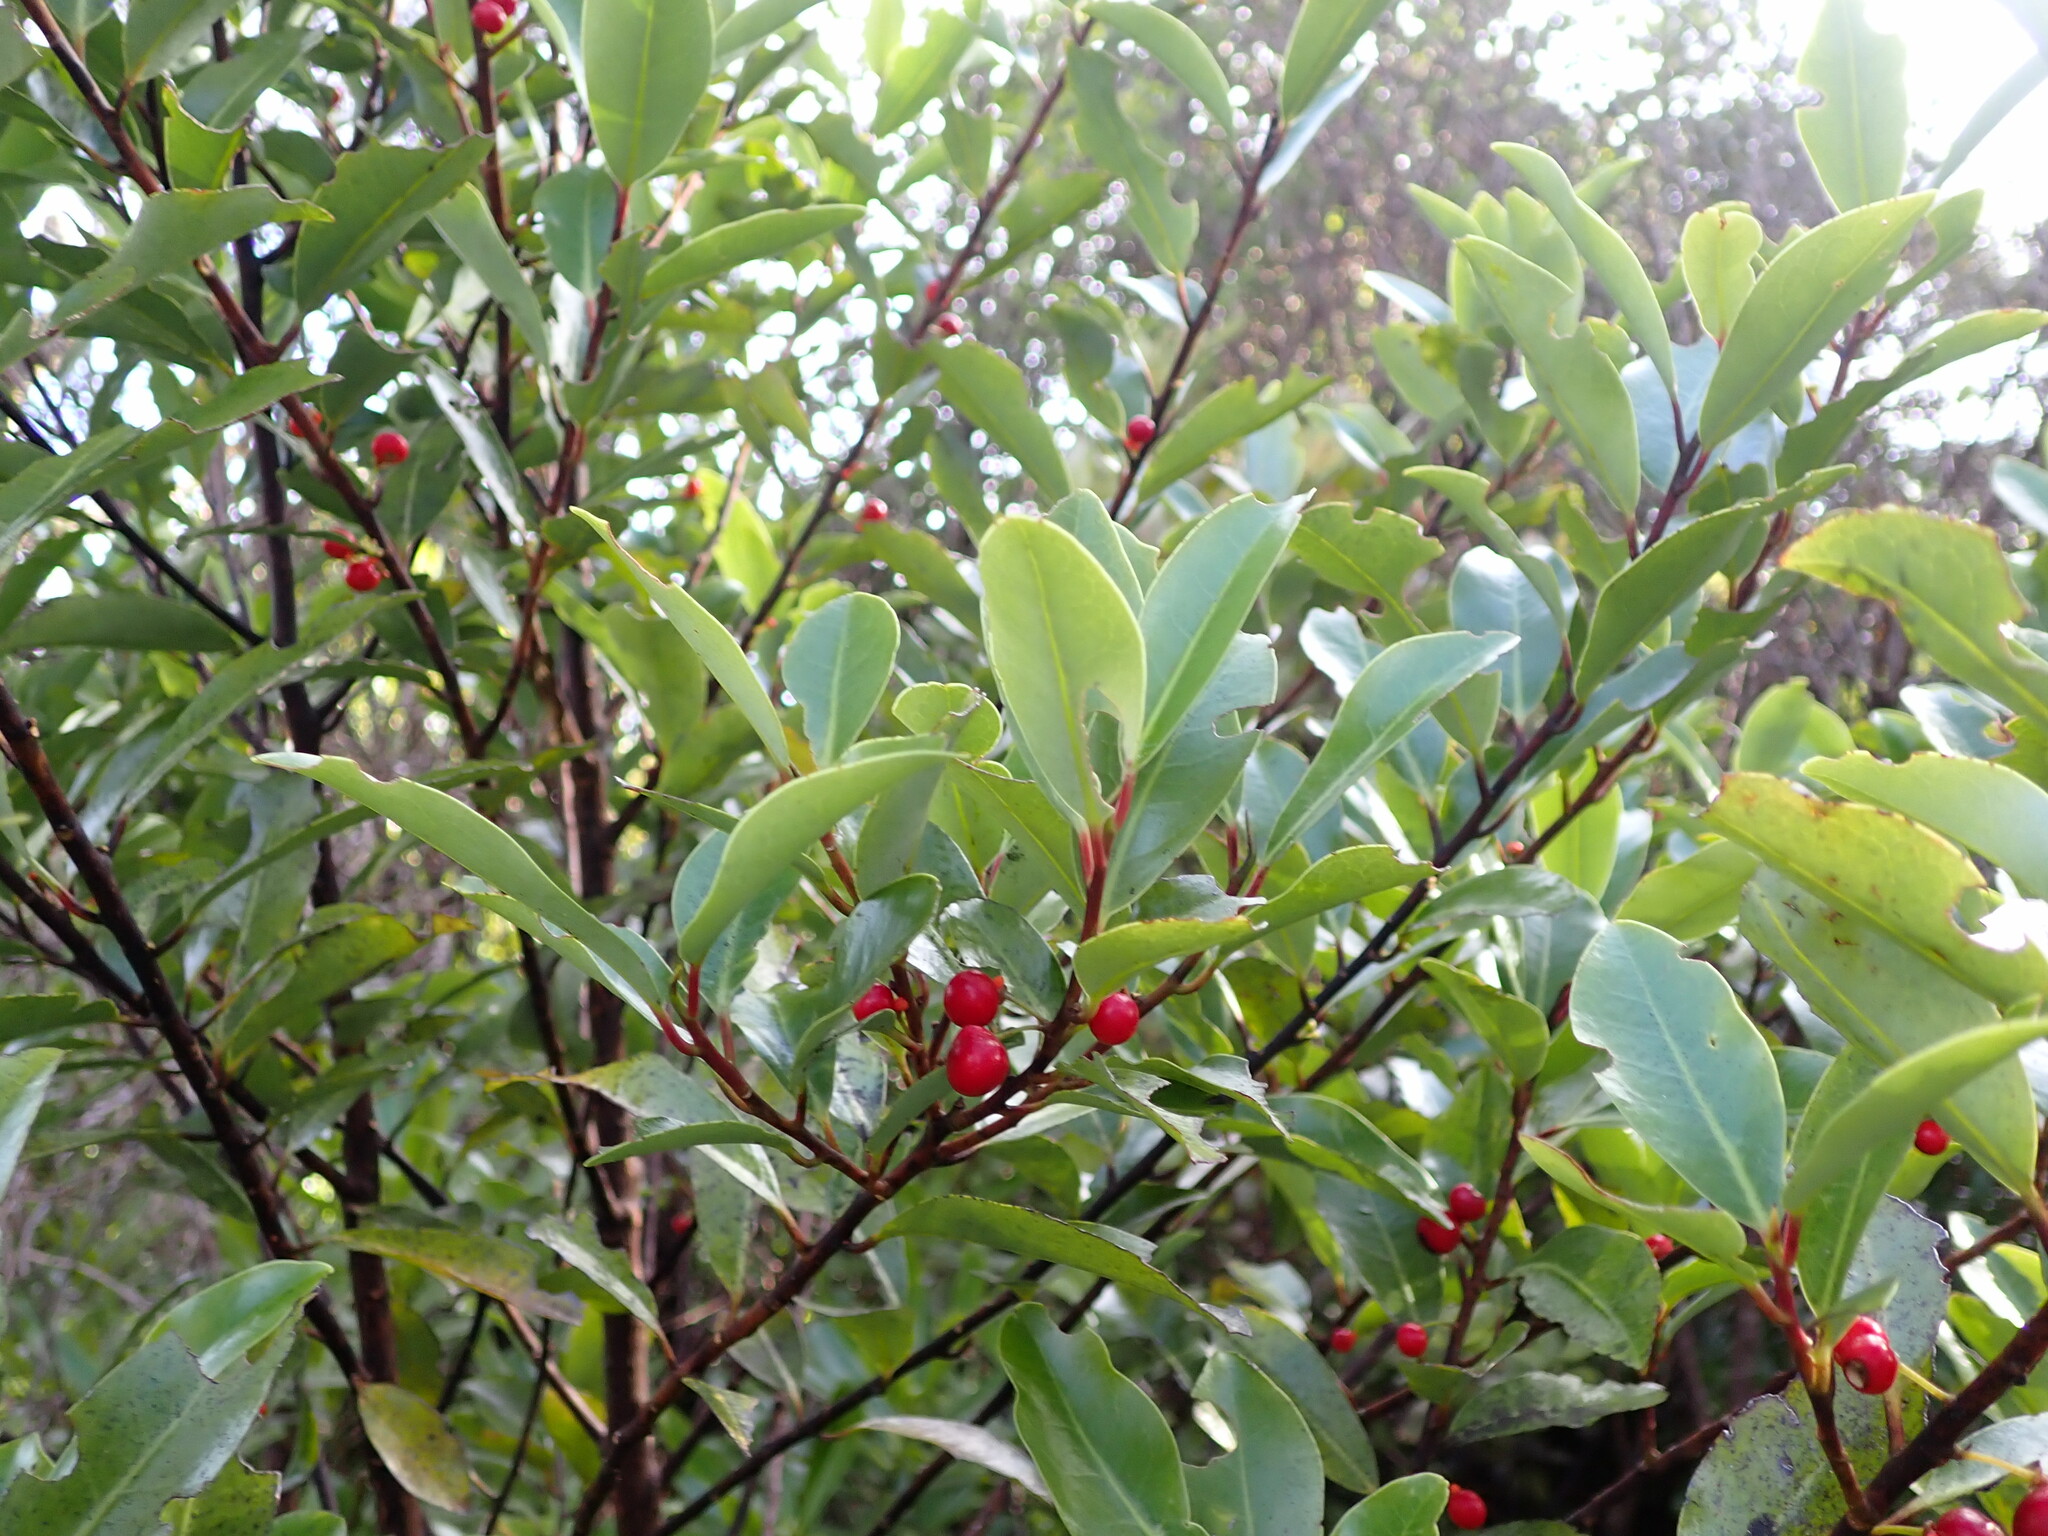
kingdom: Plantae
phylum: Tracheophyta
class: Magnoliopsida
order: Canellales
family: Winteraceae
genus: Pseudowintera
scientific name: Pseudowintera axillaris
